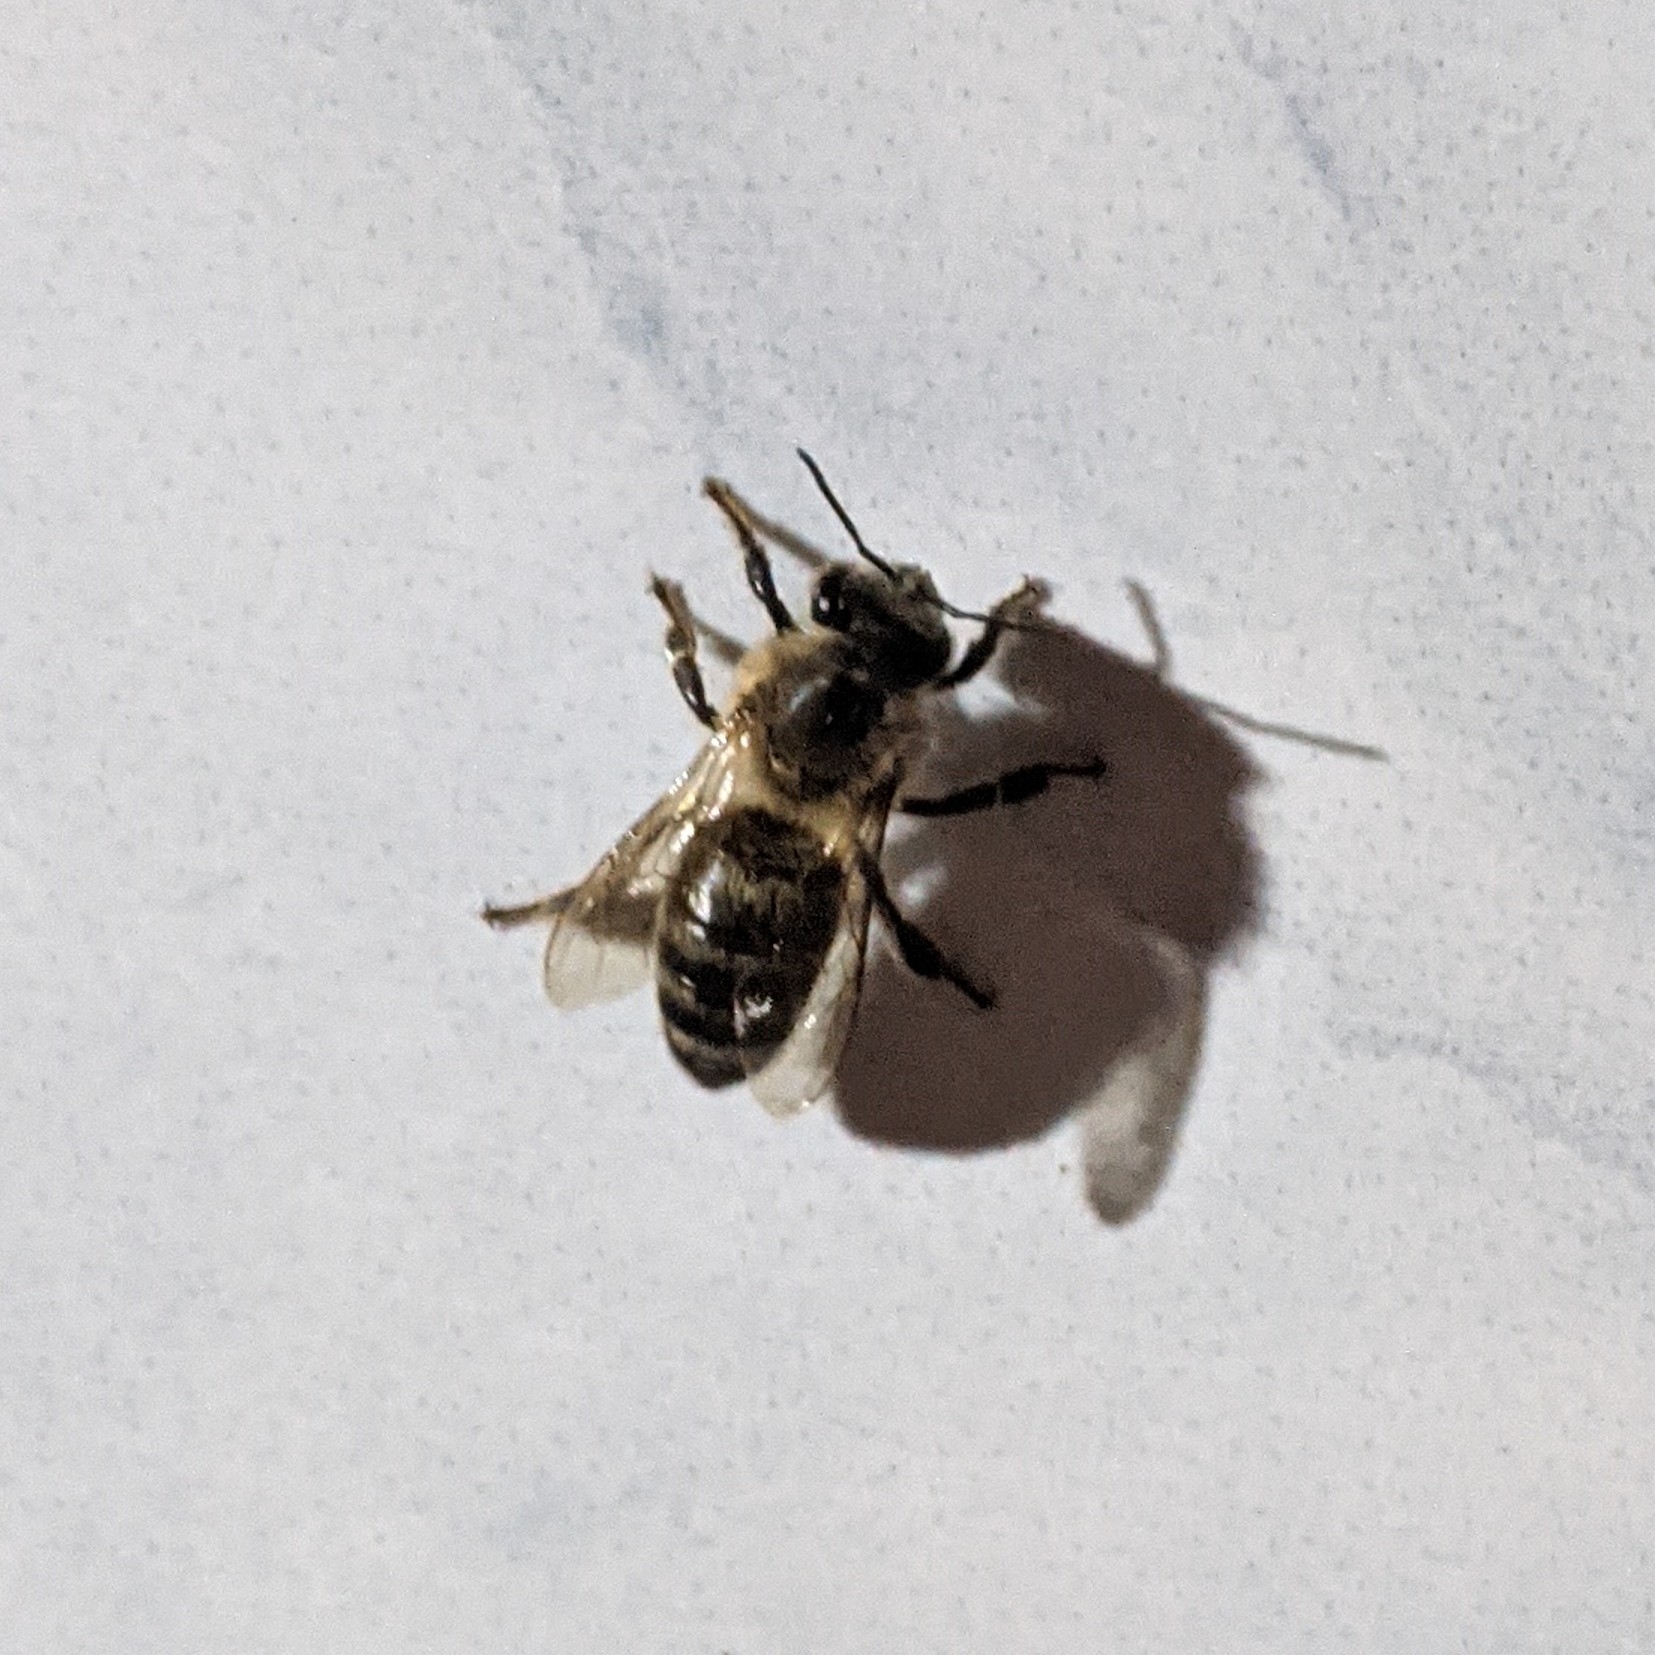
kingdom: Animalia
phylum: Arthropoda
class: Insecta
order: Hymenoptera
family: Apidae
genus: Apis
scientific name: Apis mellifera
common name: Honey bee
